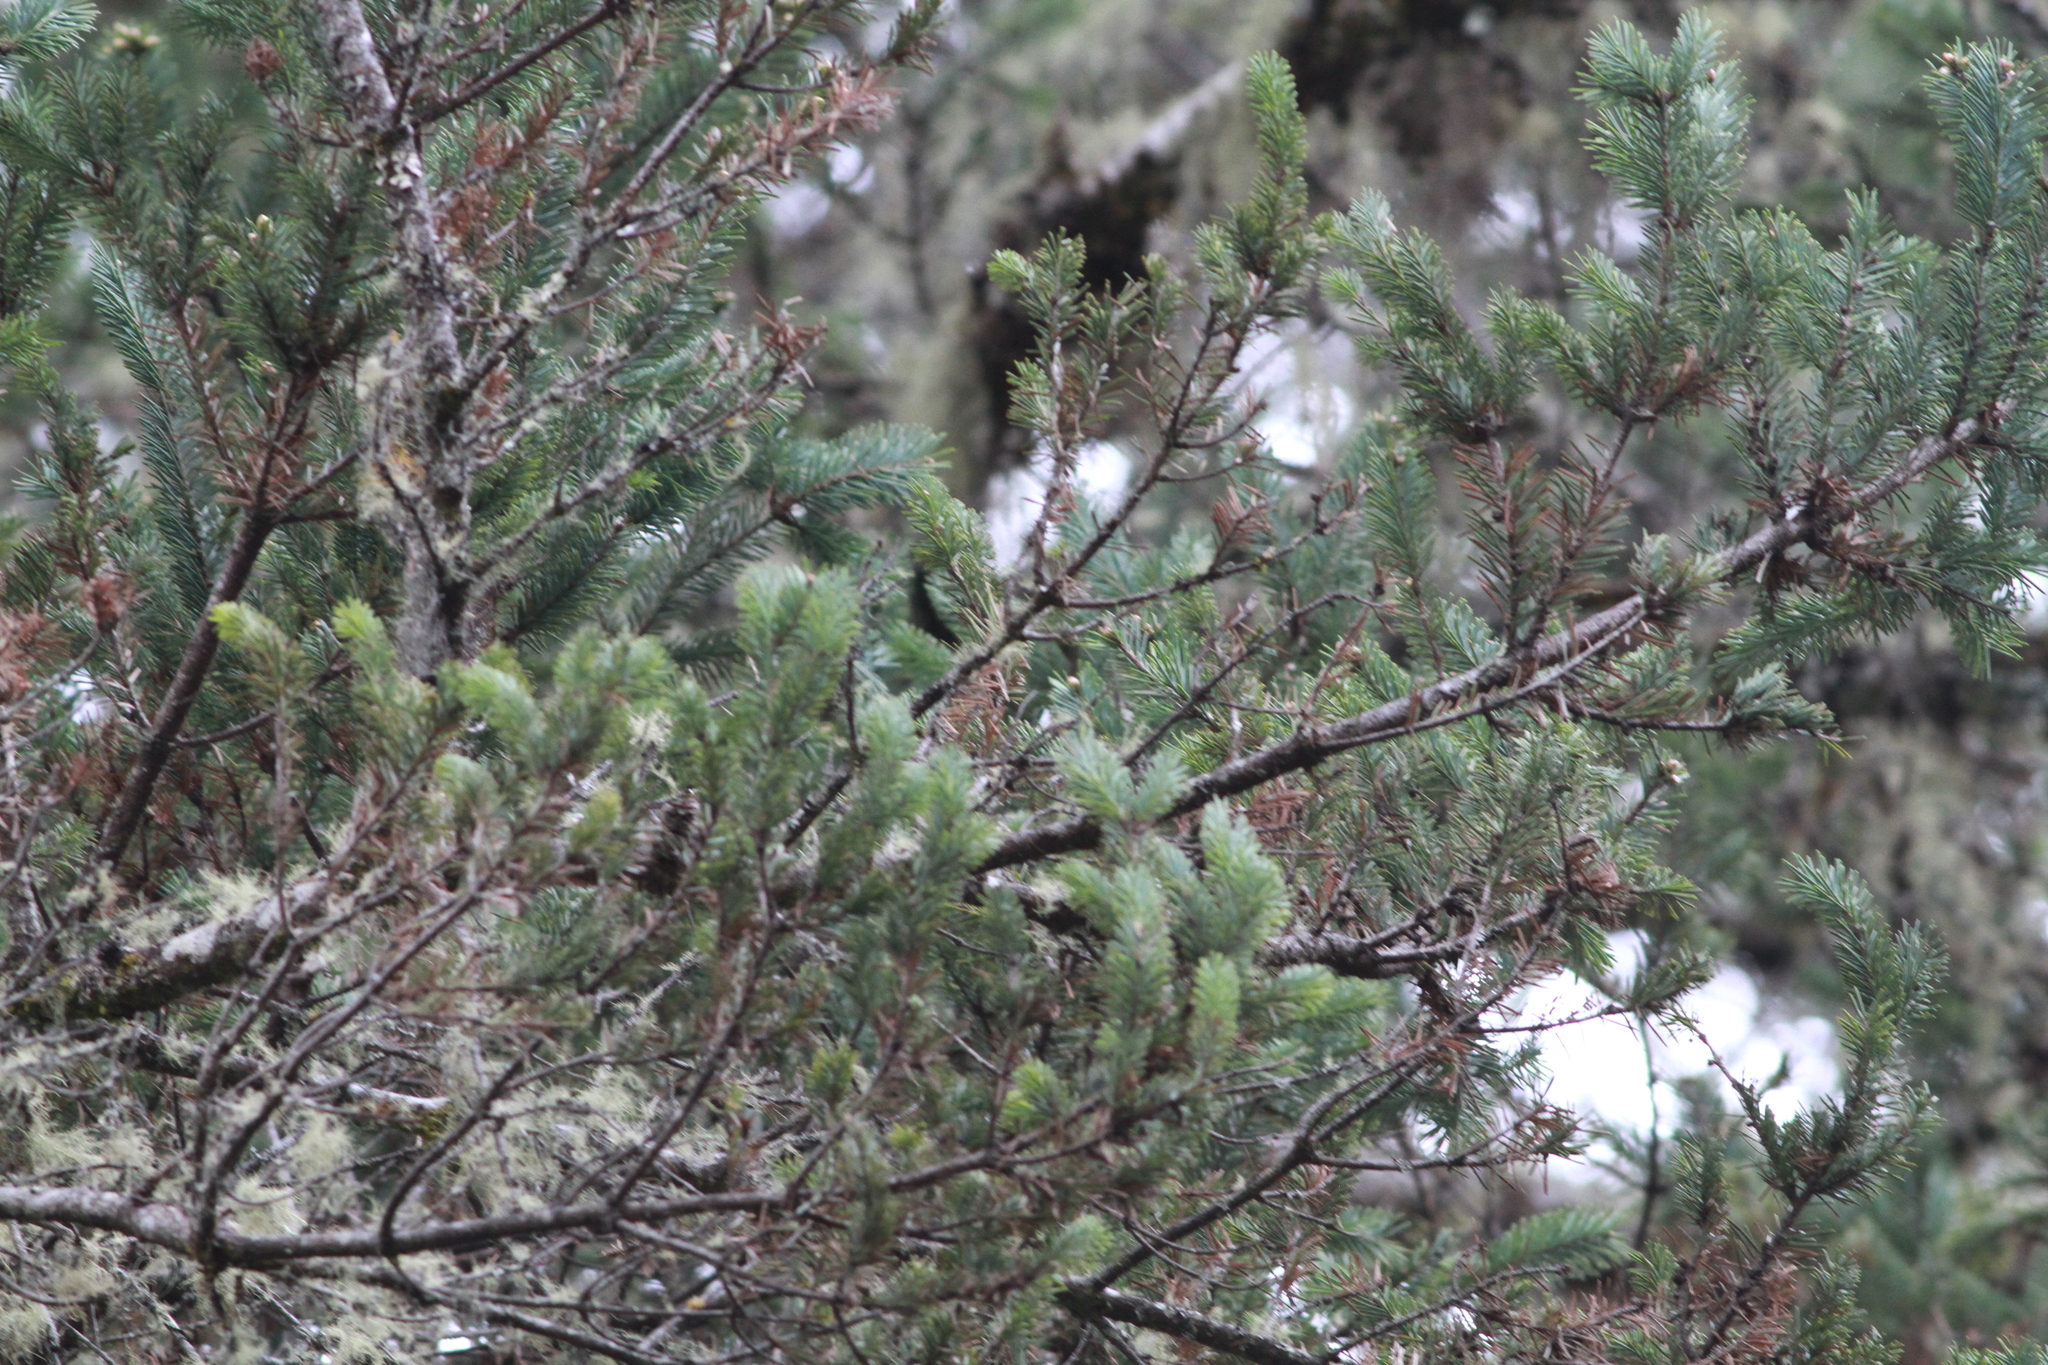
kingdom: Plantae
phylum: Tracheophyta
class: Pinopsida
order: Pinales
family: Pinaceae
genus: Pseudotsuga
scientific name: Pseudotsuga menziesii
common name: Douglas fir
